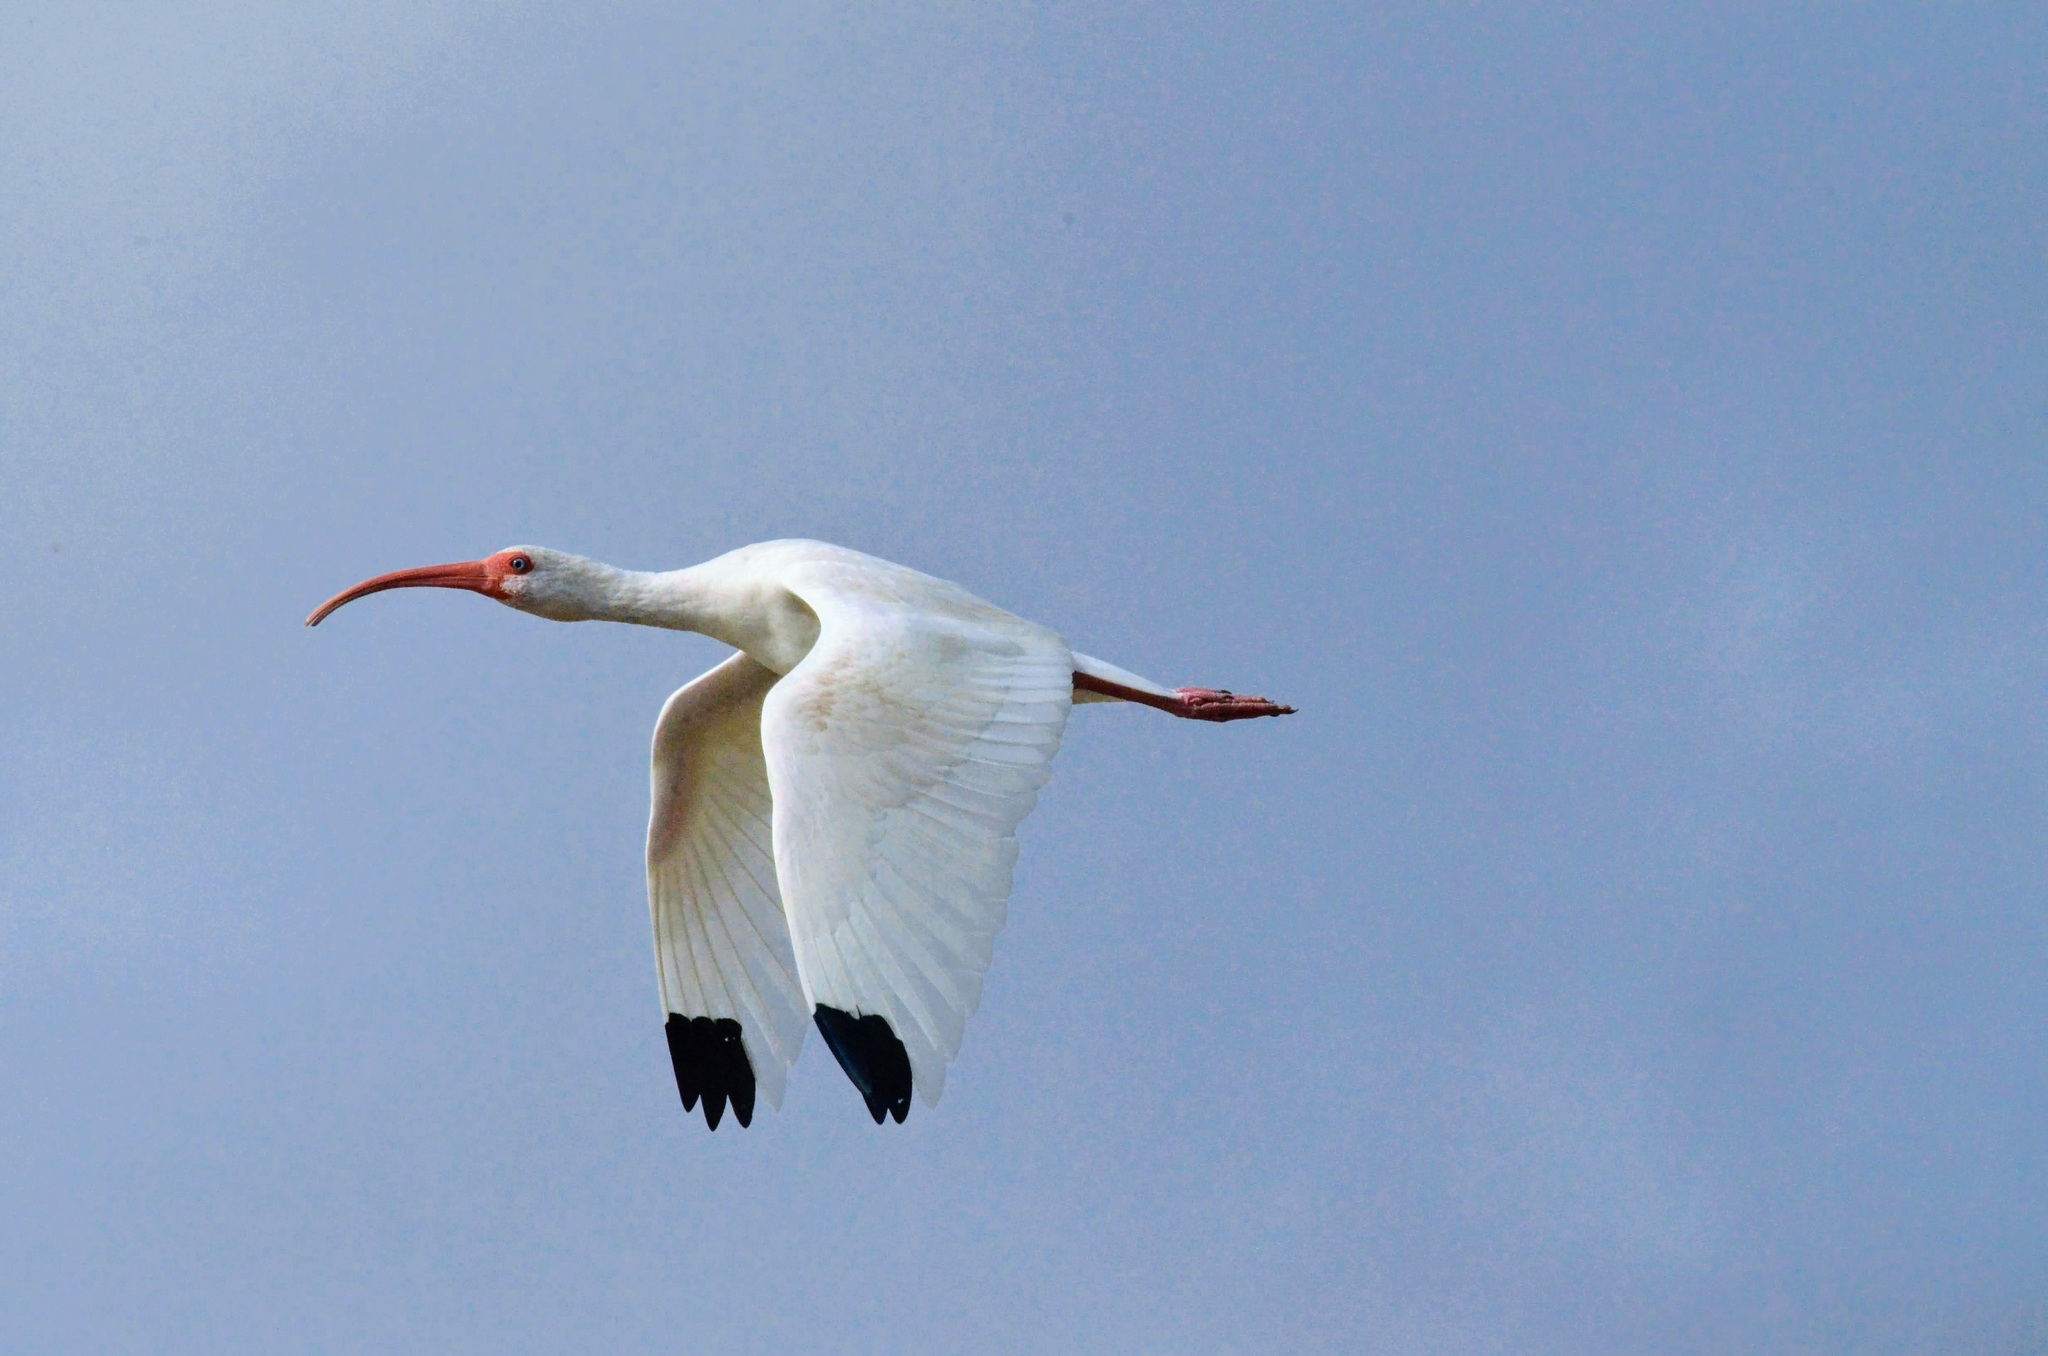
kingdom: Animalia
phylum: Chordata
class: Aves
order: Pelecaniformes
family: Threskiornithidae
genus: Eudocimus
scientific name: Eudocimus albus
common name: White ibis
